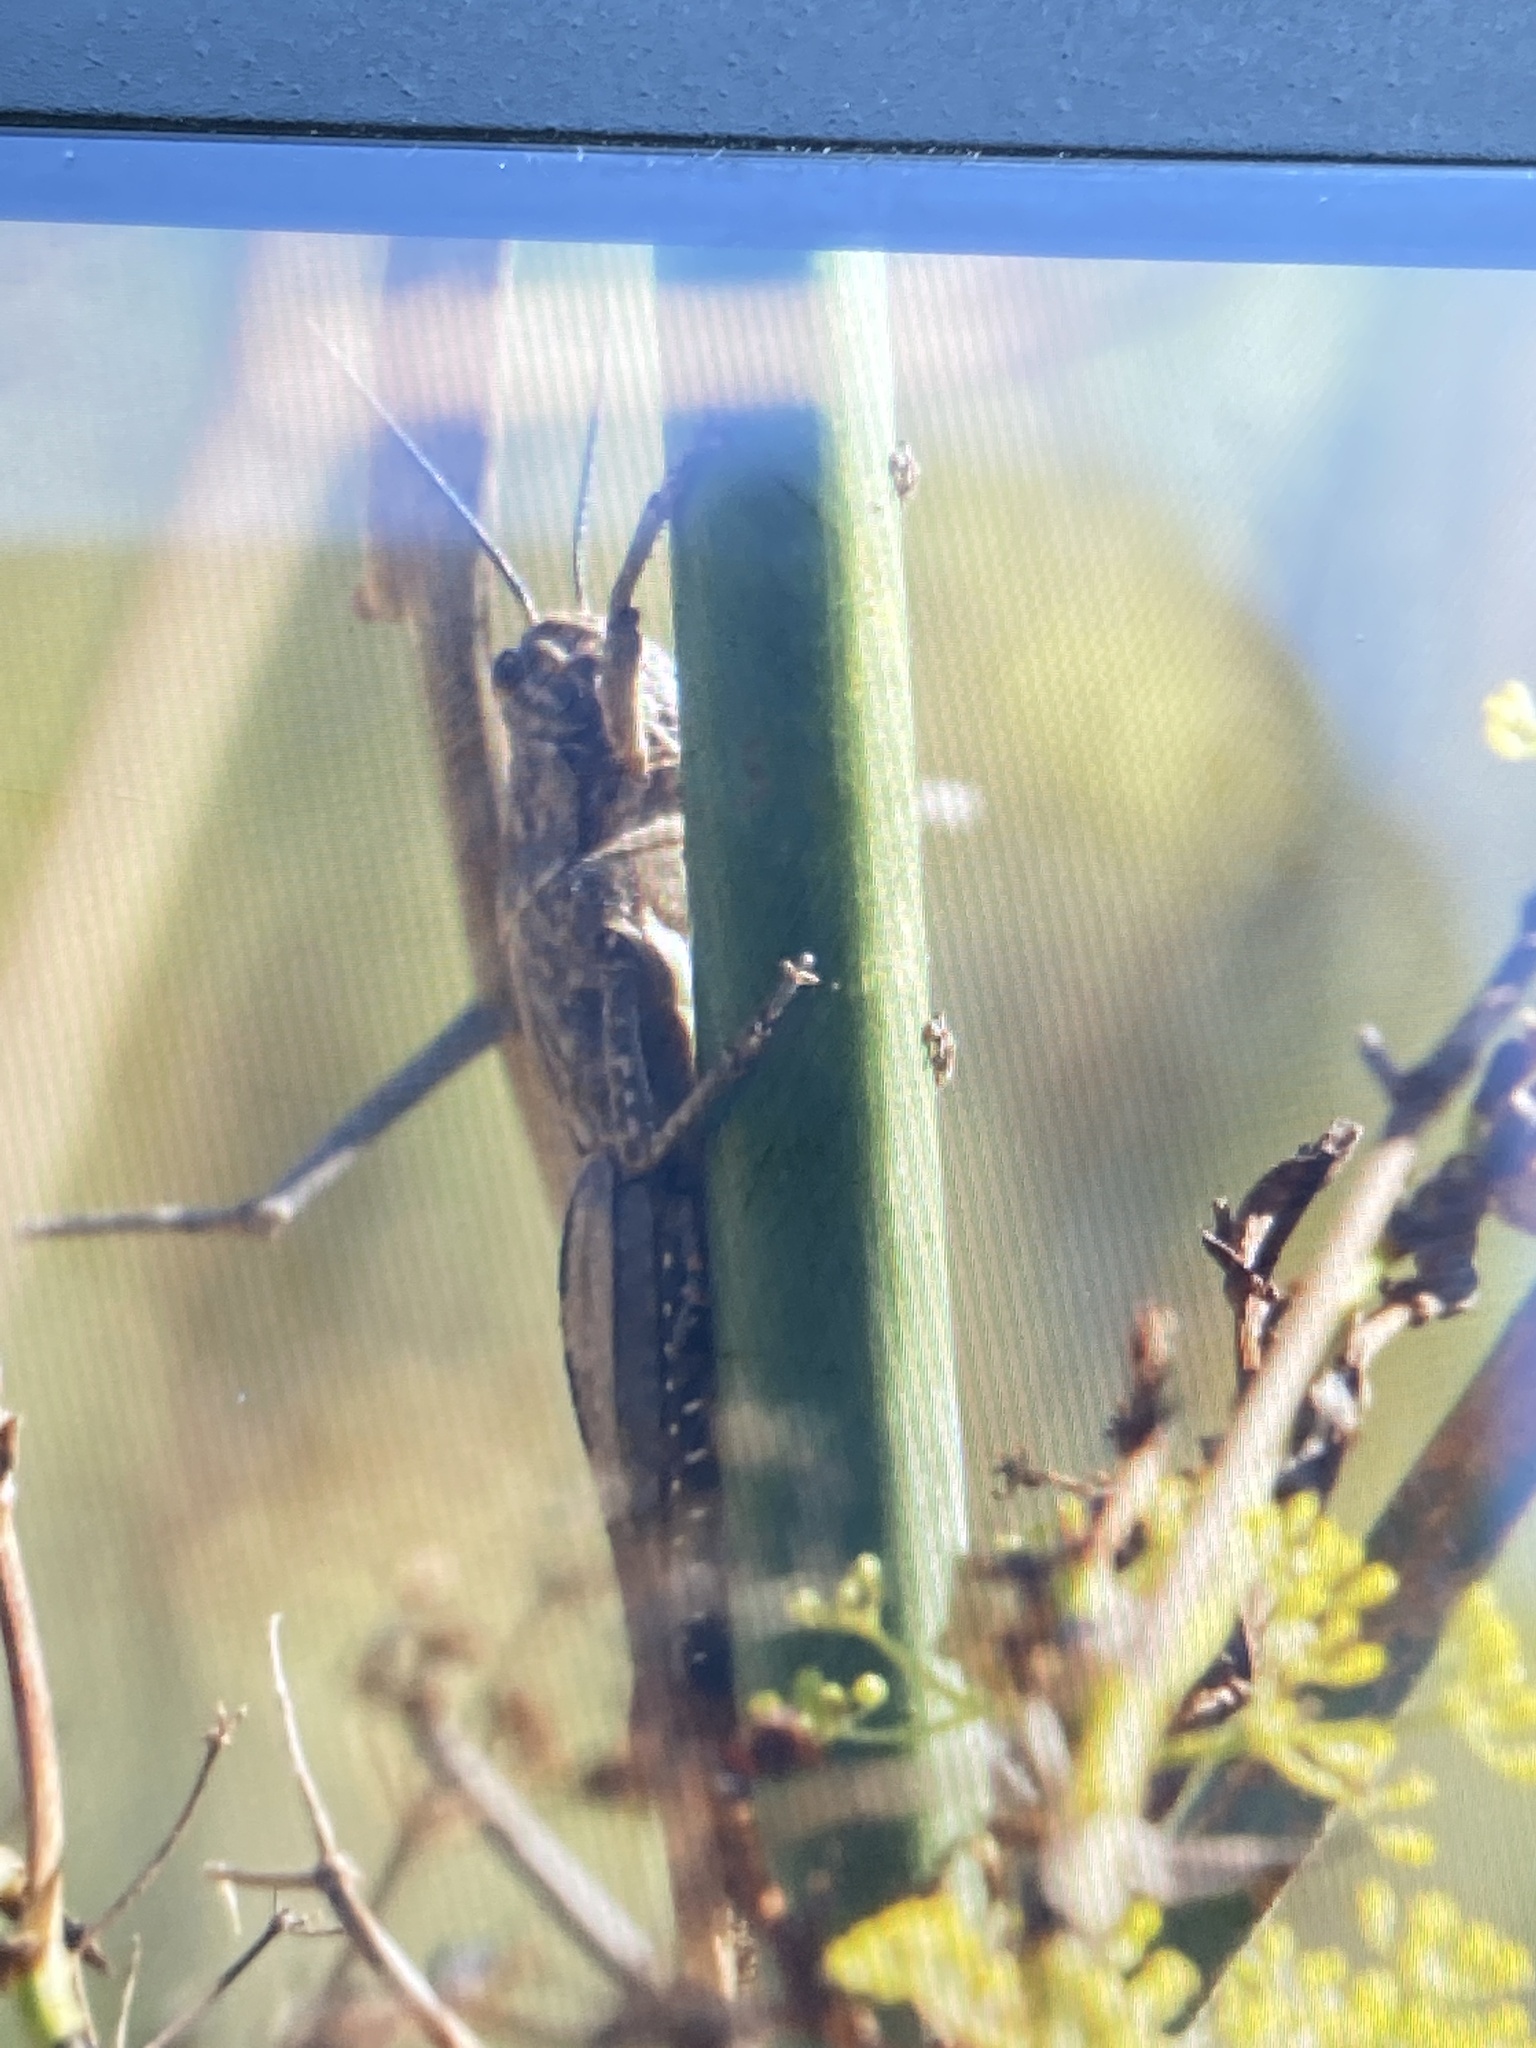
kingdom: Animalia
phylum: Arthropoda
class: Insecta
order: Orthoptera
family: Acrididae
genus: Anacridium
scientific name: Anacridium aegyptium
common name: Egyptian grasshopper
